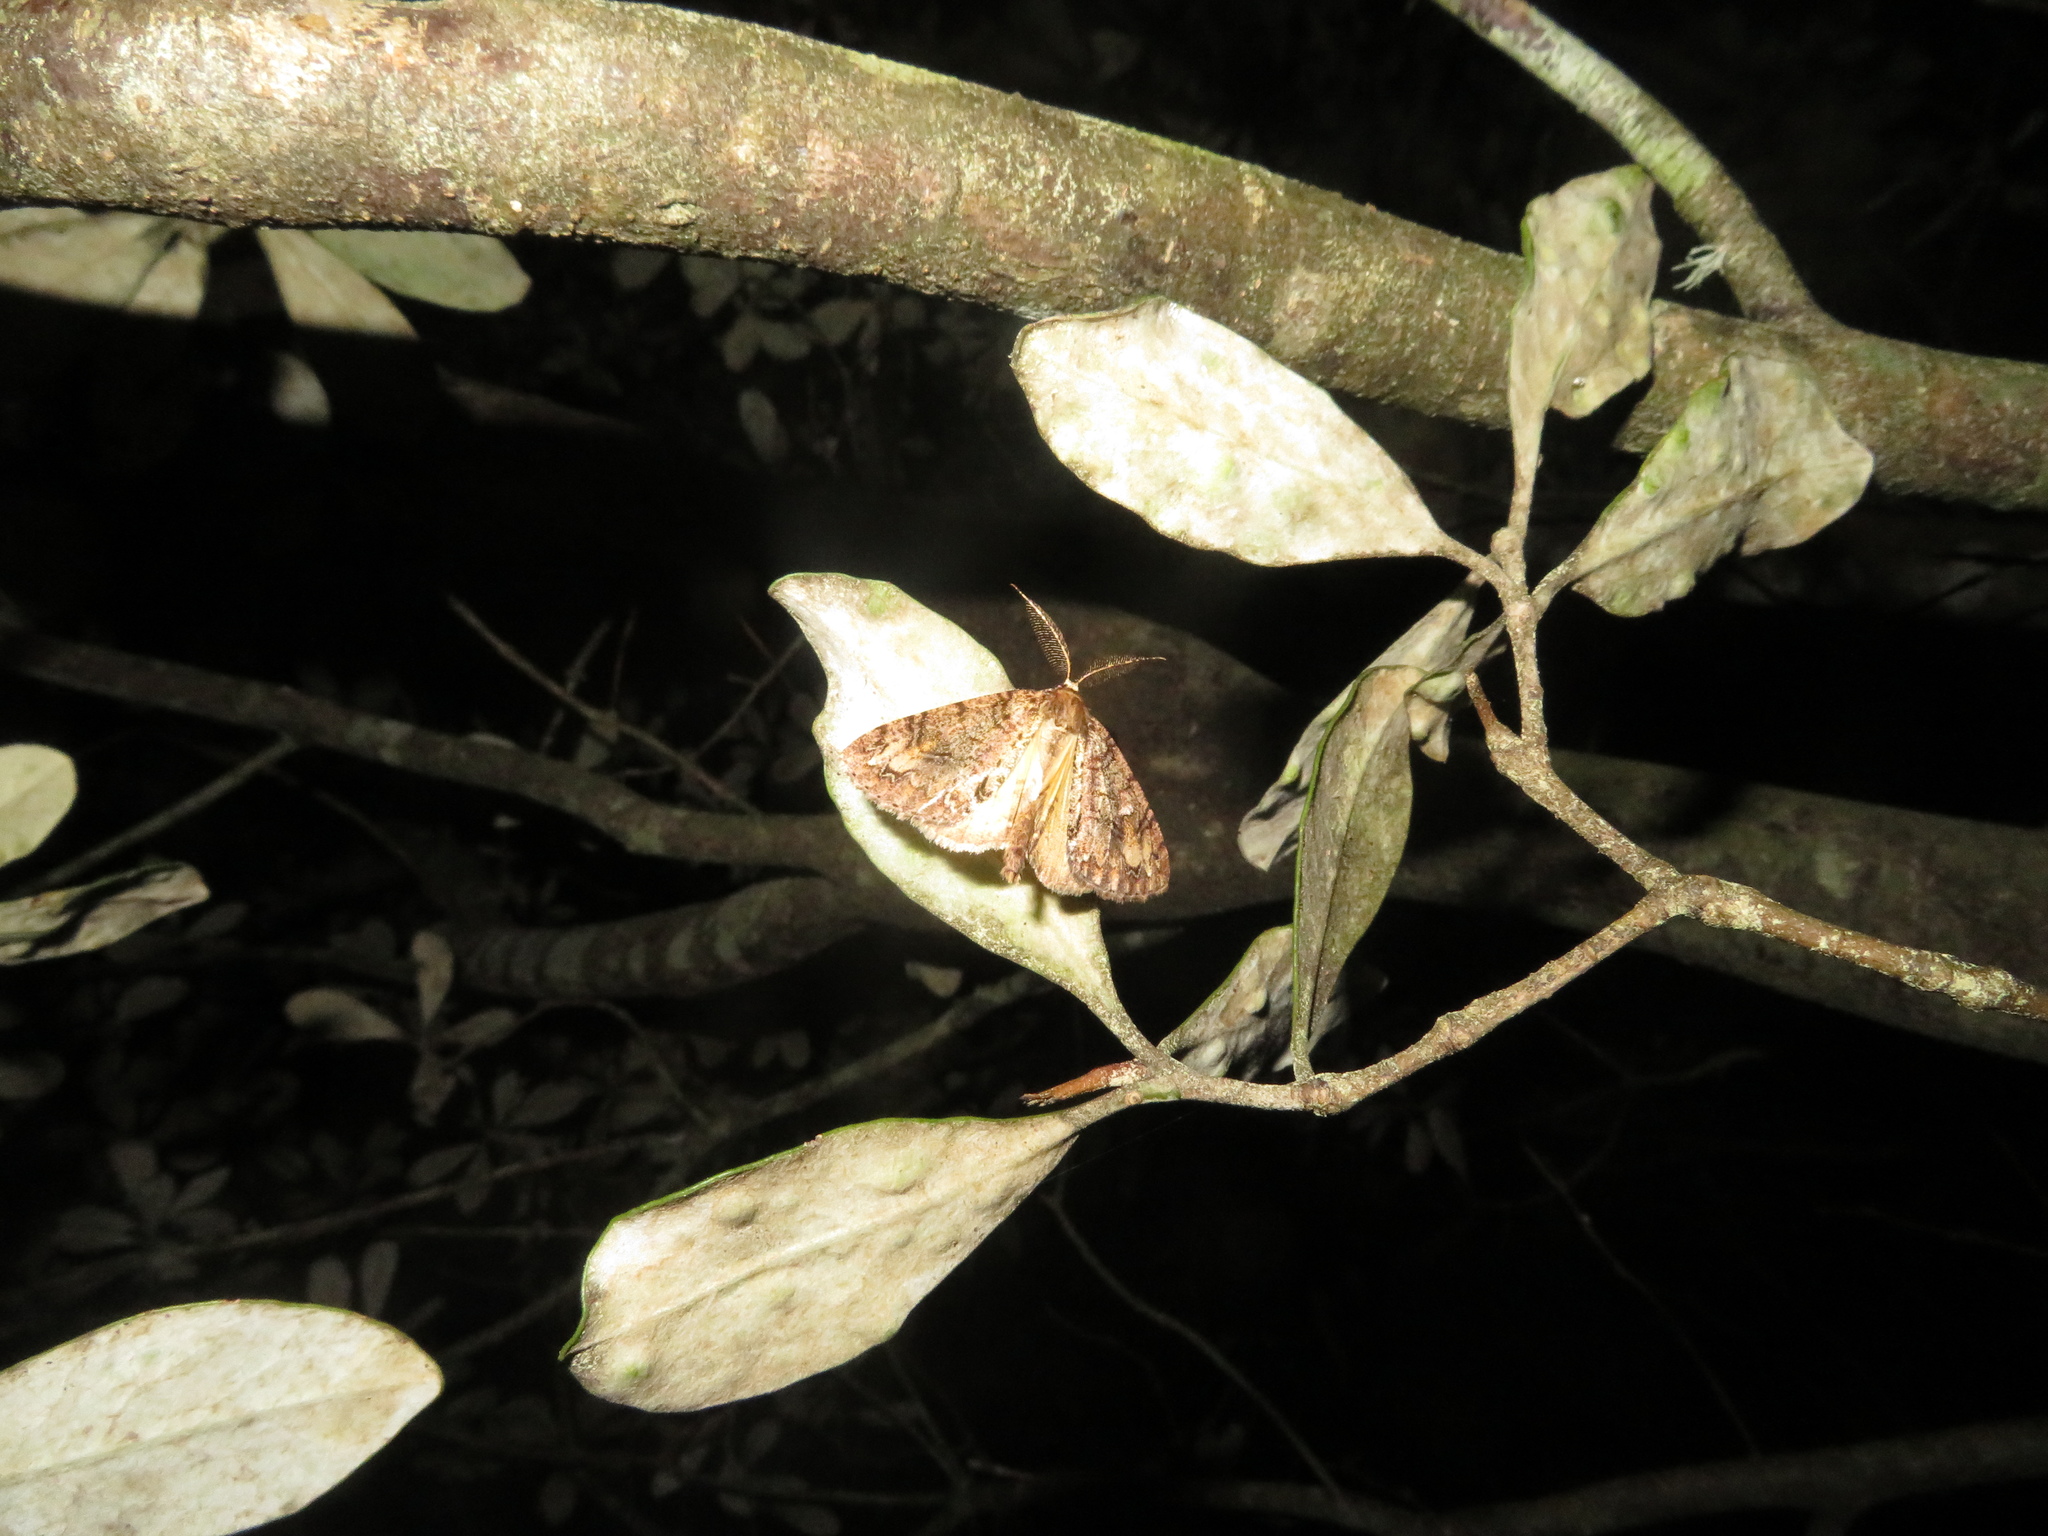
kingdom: Animalia
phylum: Arthropoda
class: Insecta
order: Lepidoptera
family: Geometridae
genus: Pseudocoremia
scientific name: Pseudocoremia suavis
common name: Common forest looper
